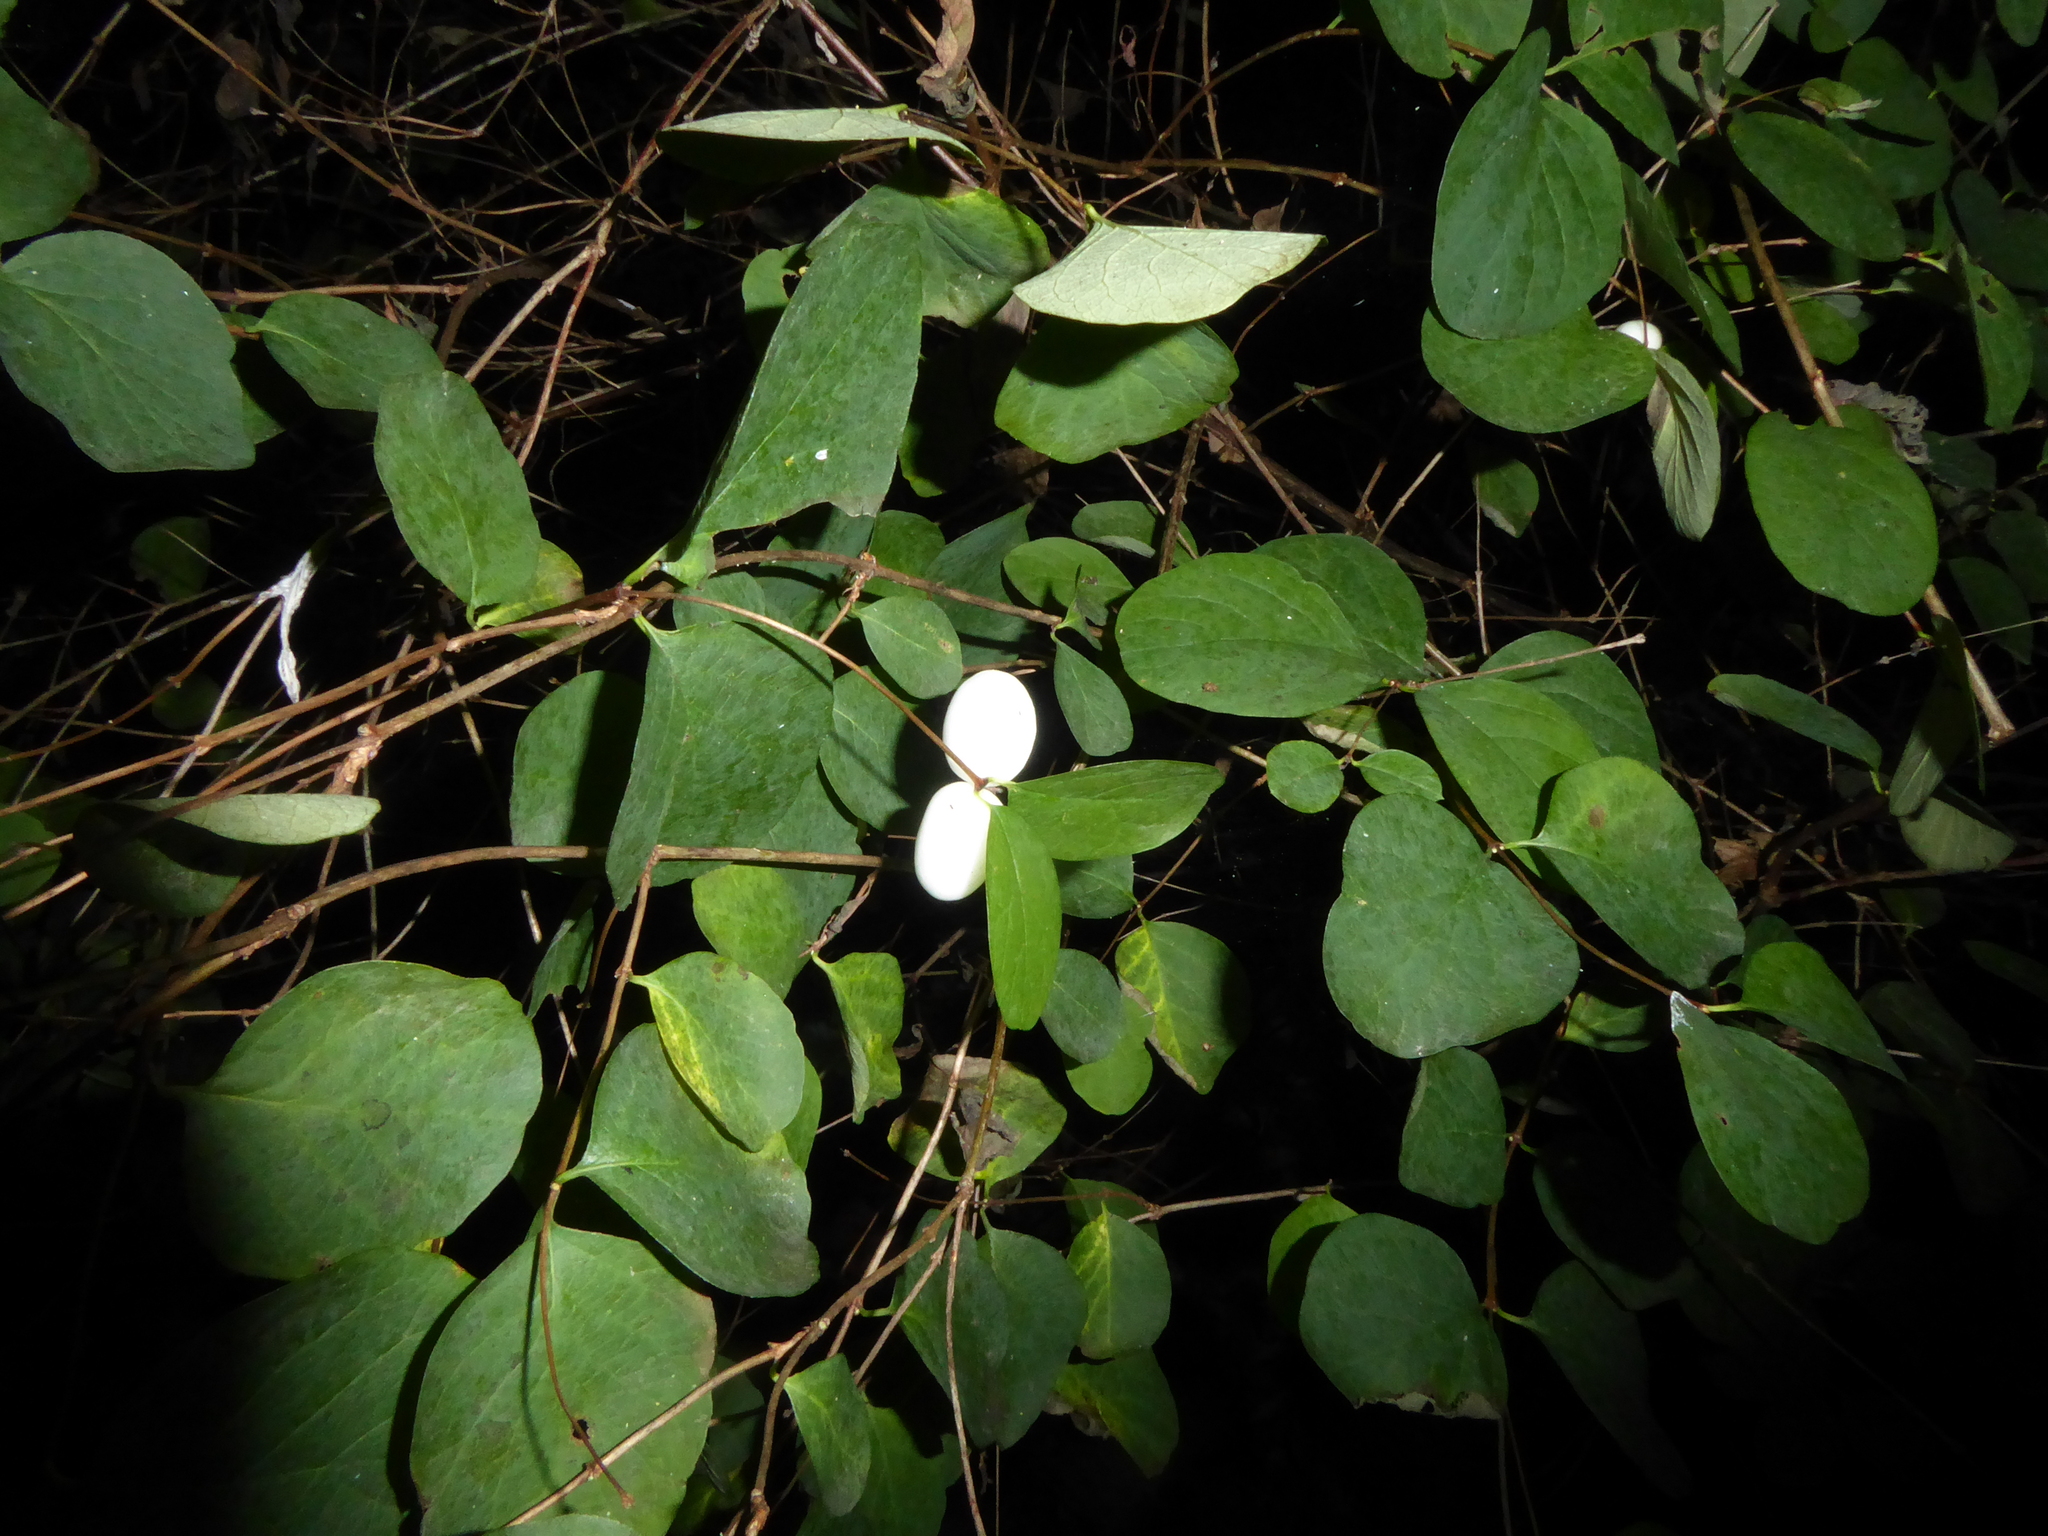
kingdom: Plantae
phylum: Tracheophyta
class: Magnoliopsida
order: Dipsacales
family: Caprifoliaceae
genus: Symphoricarpos
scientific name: Symphoricarpos albus
